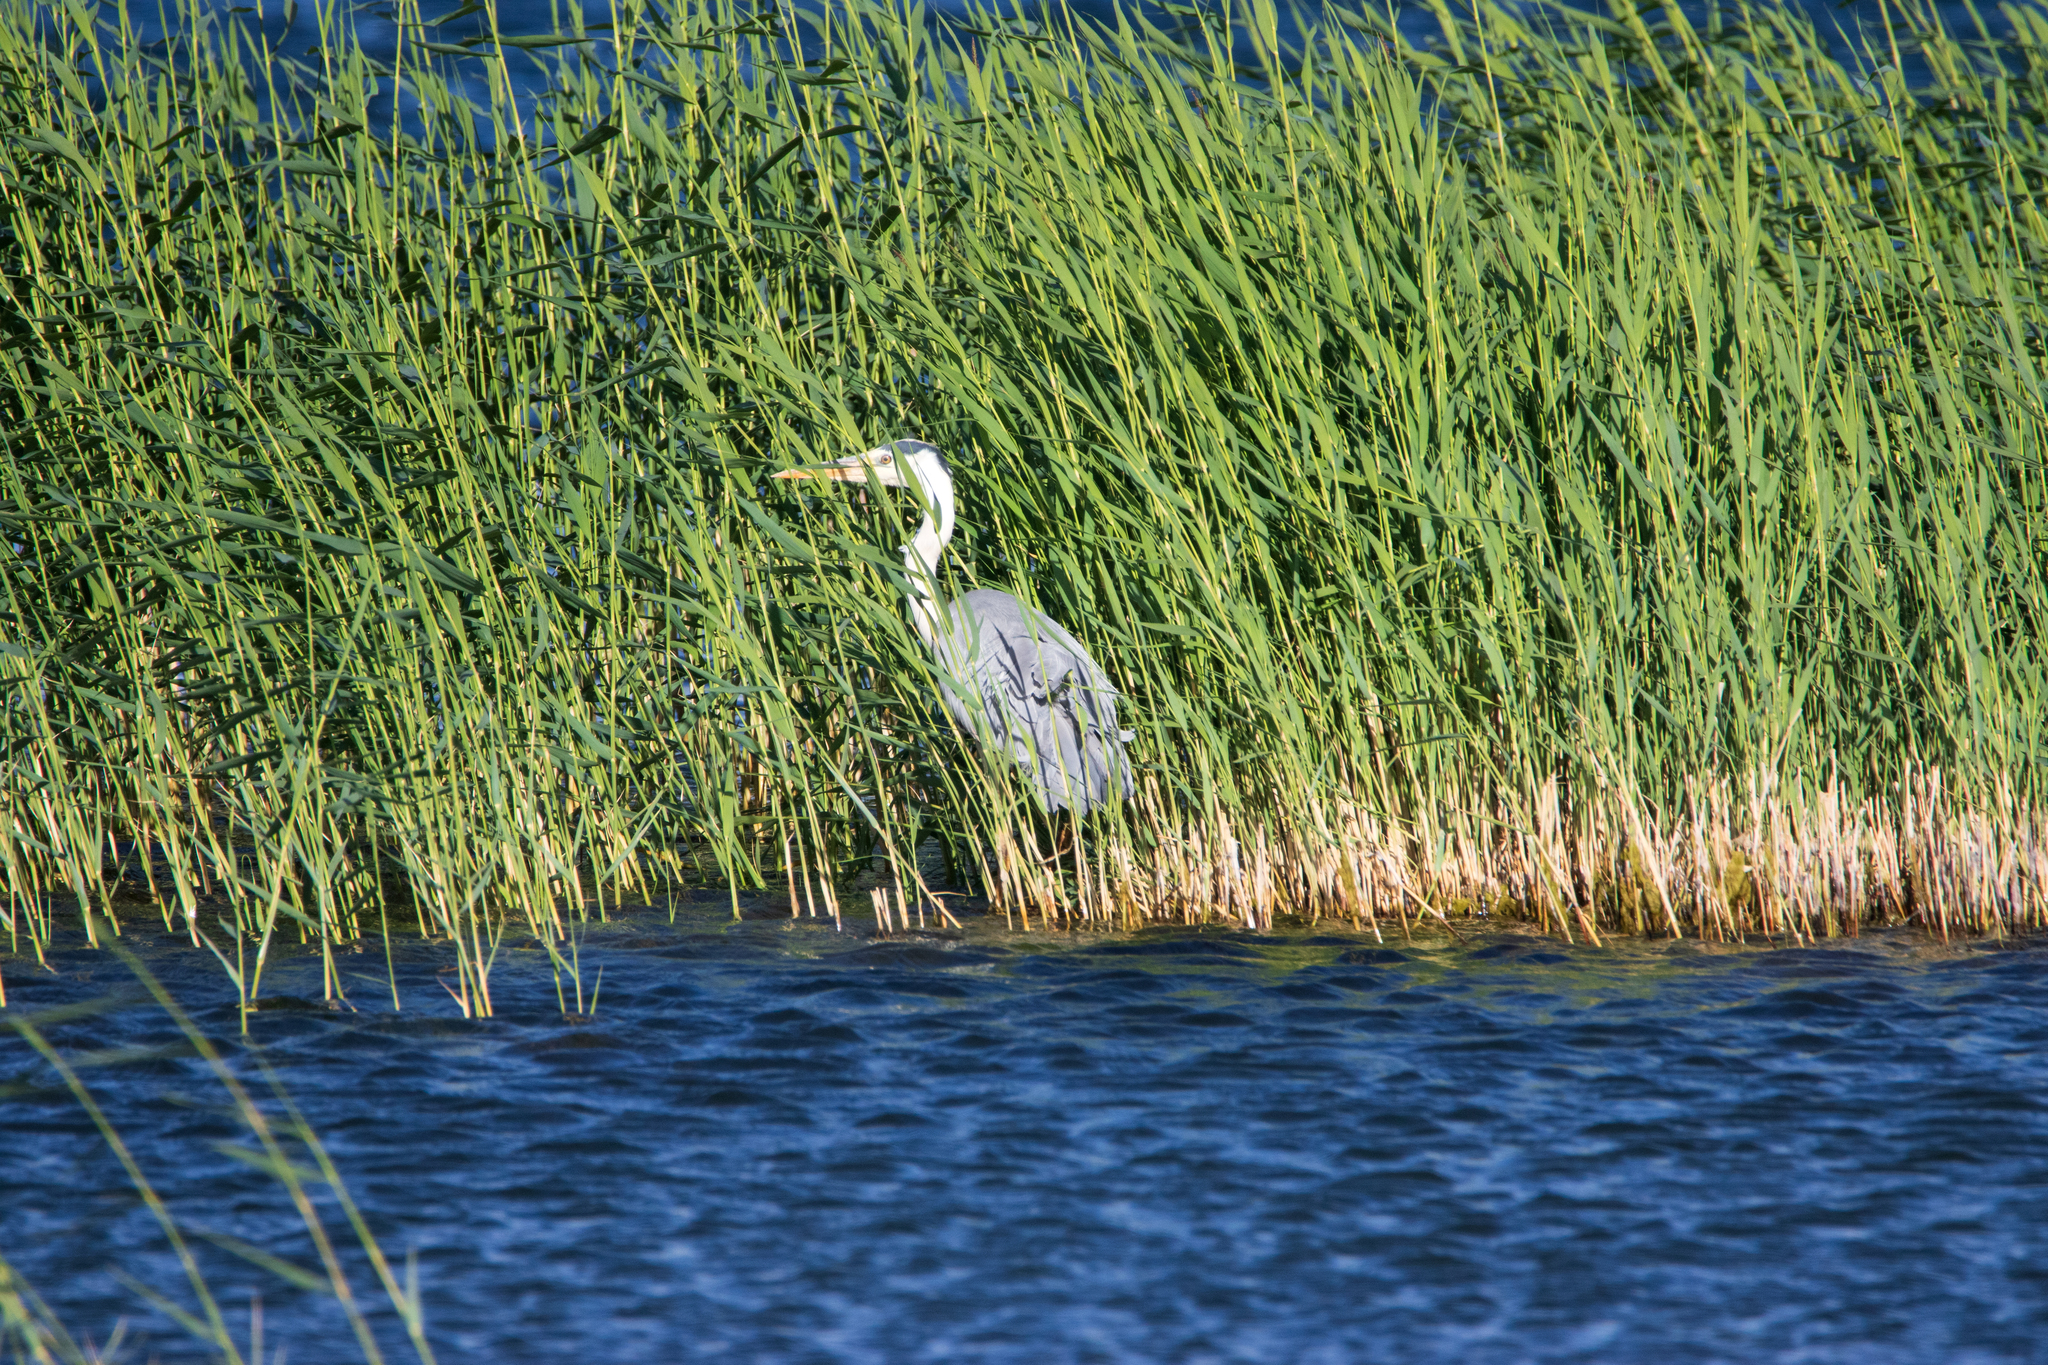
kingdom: Animalia
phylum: Chordata
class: Aves
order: Pelecaniformes
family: Ardeidae
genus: Ardea
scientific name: Ardea cinerea
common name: Grey heron
